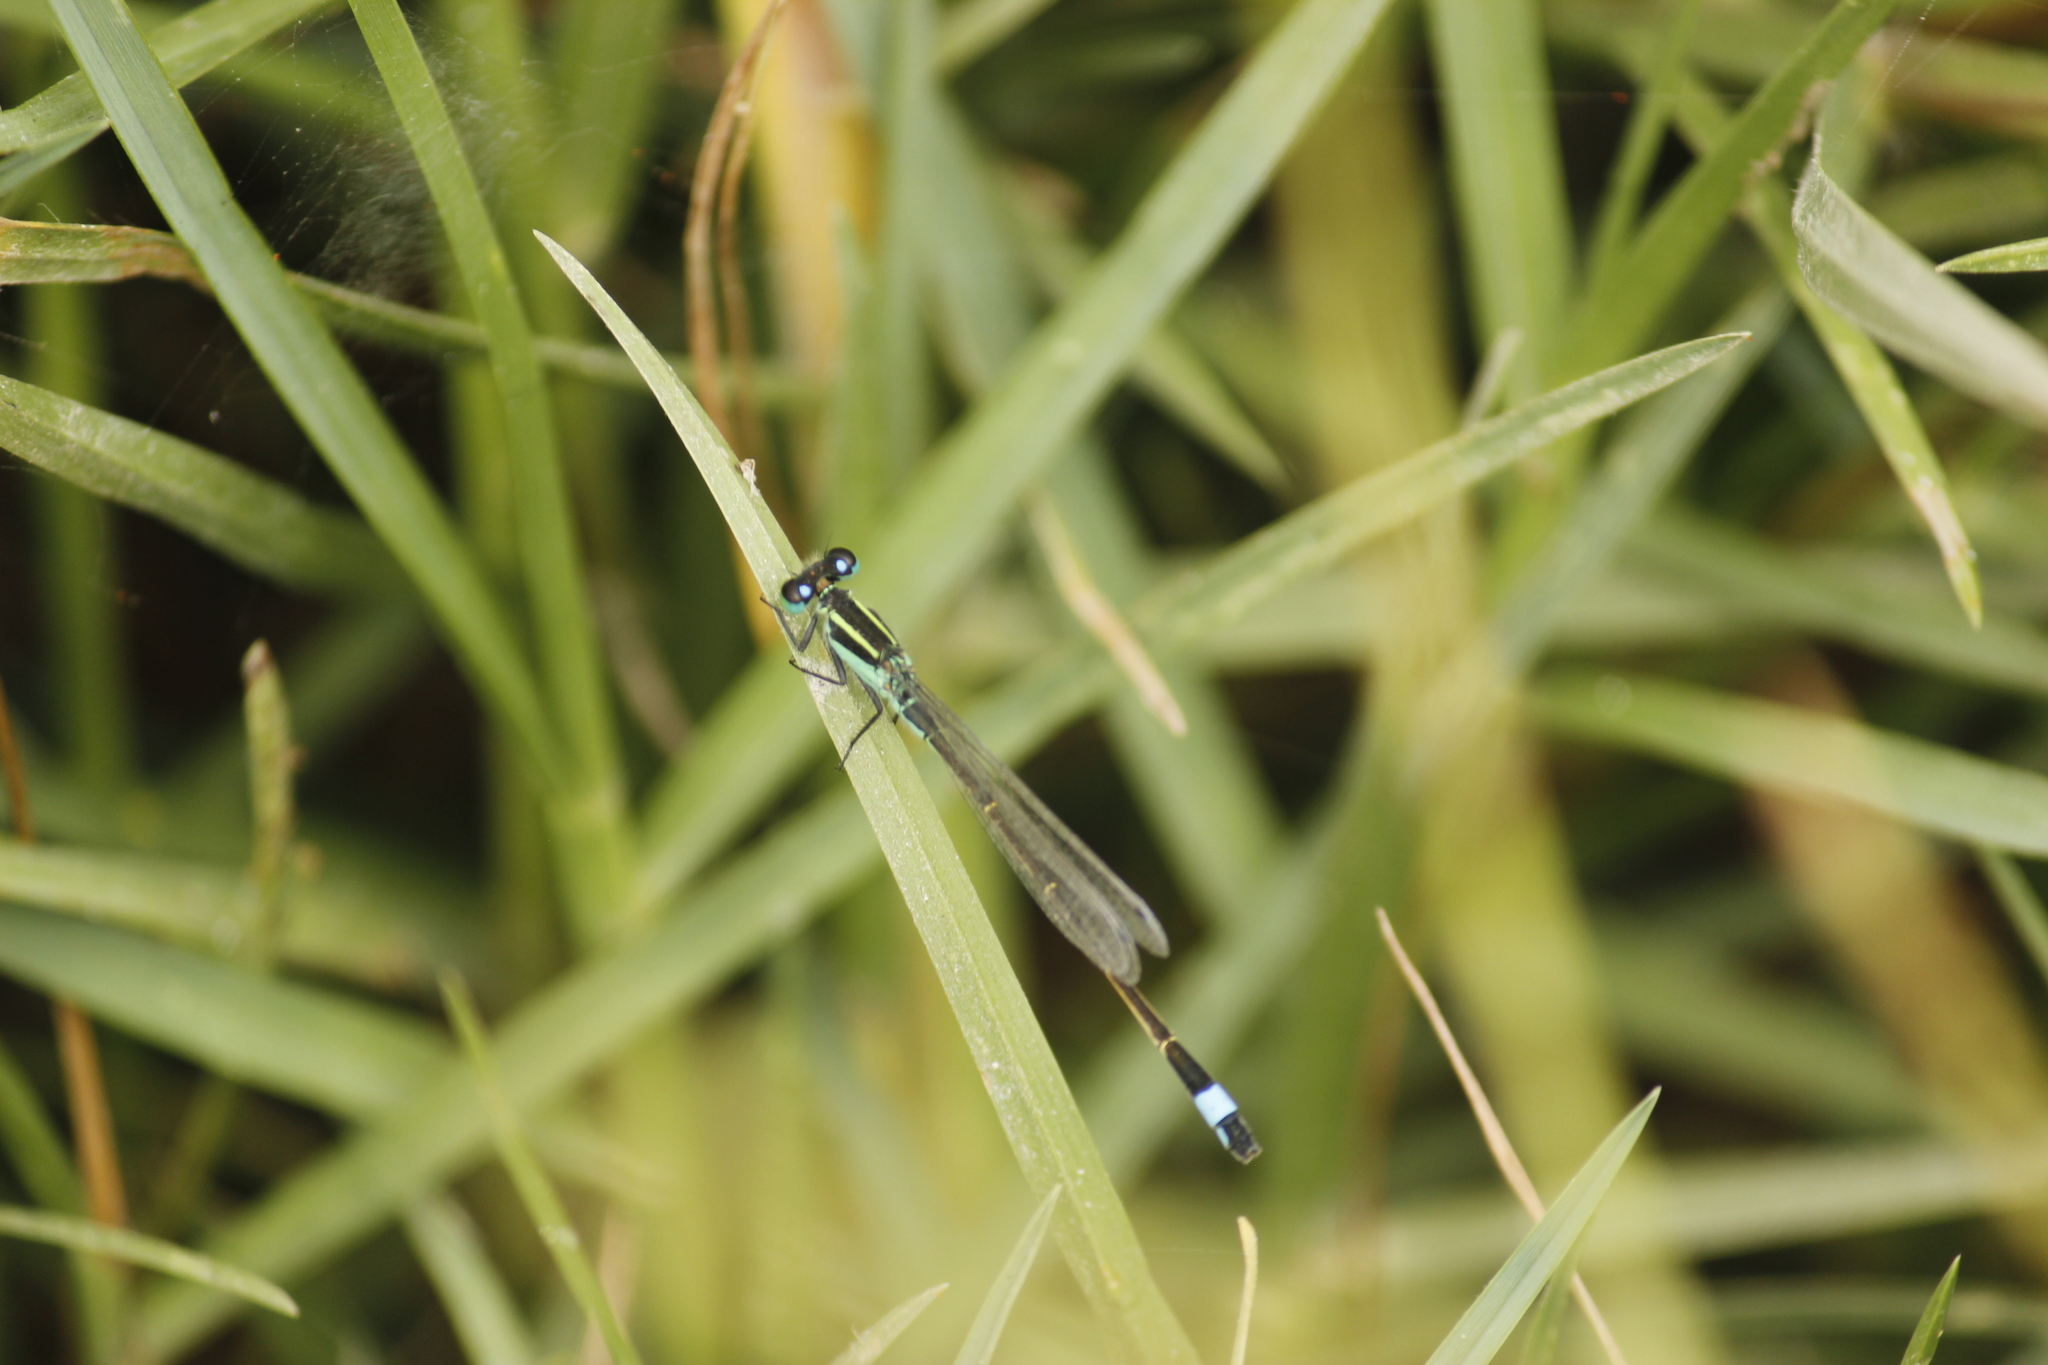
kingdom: Animalia
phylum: Arthropoda
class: Insecta
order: Odonata
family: Coenagrionidae
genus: Ischnura
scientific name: Ischnura ramburii
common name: Rambur's forktail
